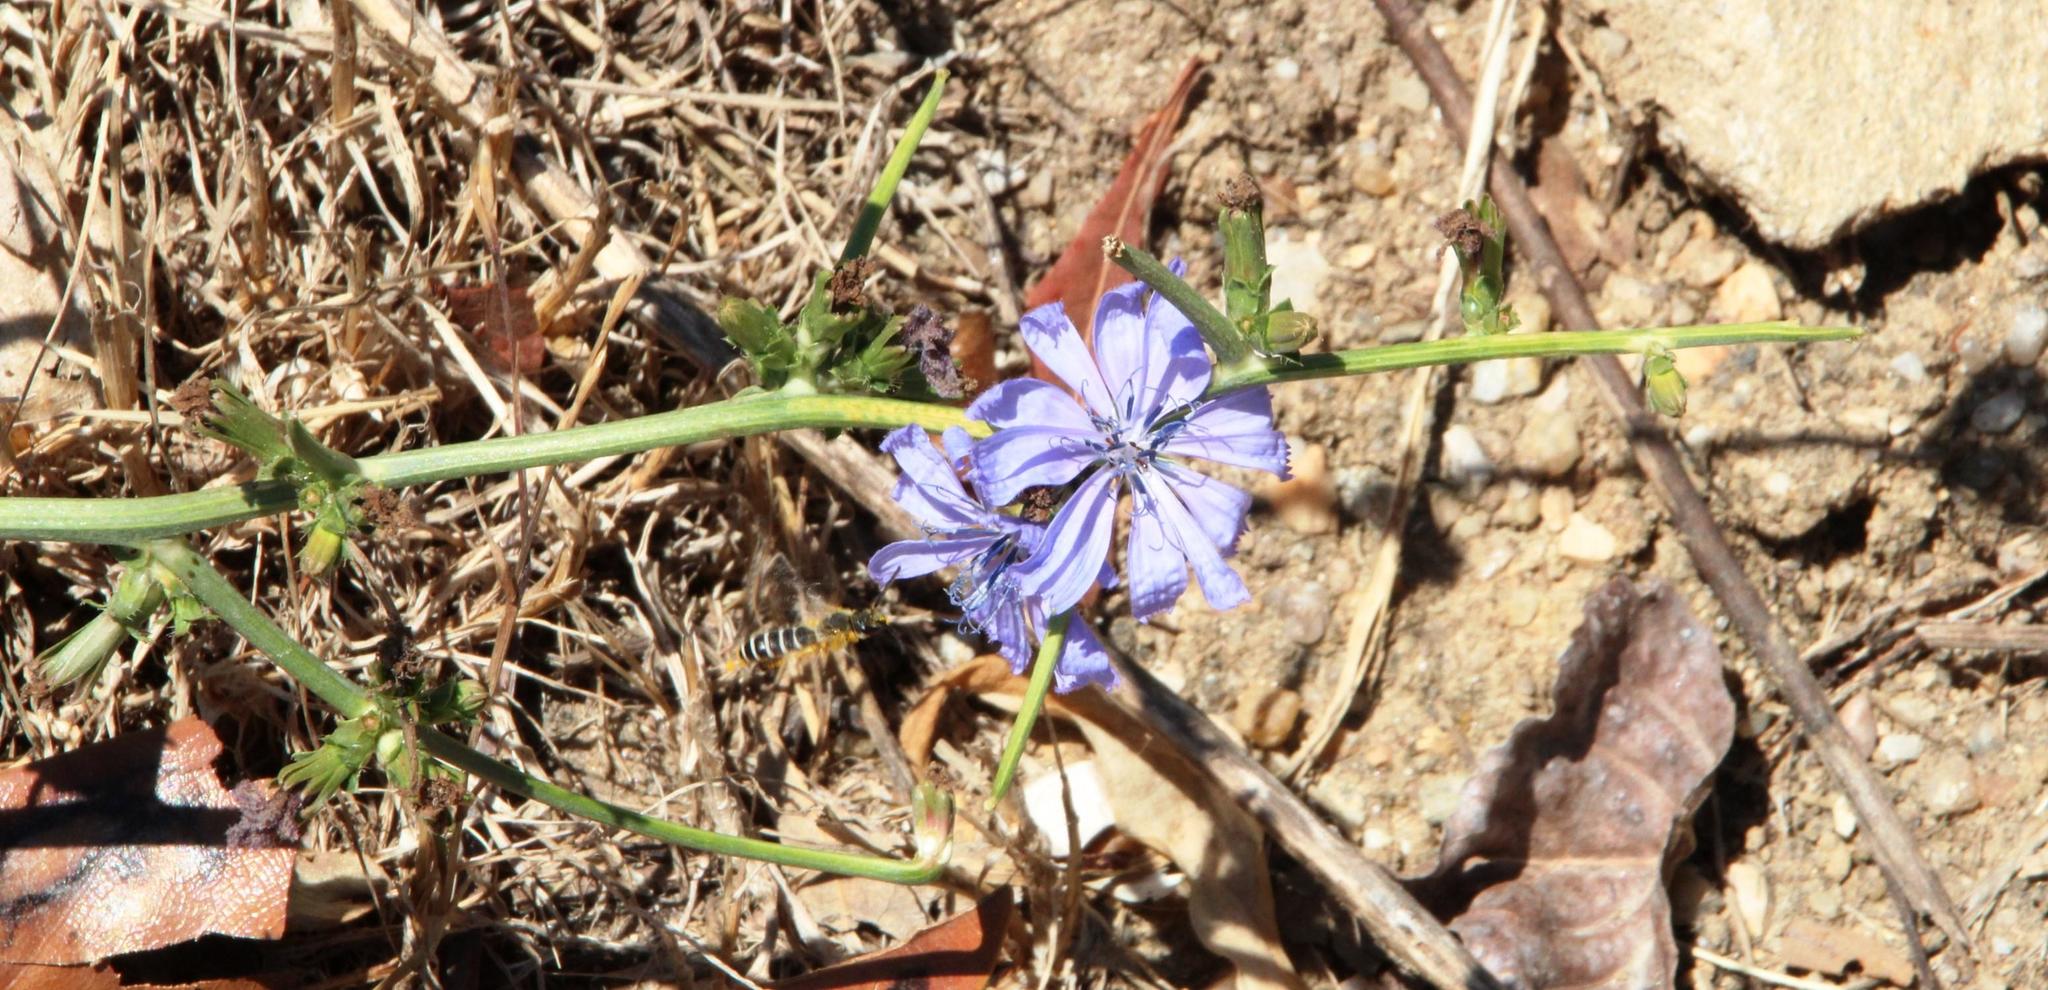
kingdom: Plantae
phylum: Tracheophyta
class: Magnoliopsida
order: Asterales
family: Asteraceae
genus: Cichorium
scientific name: Cichorium intybus
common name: Chicory
